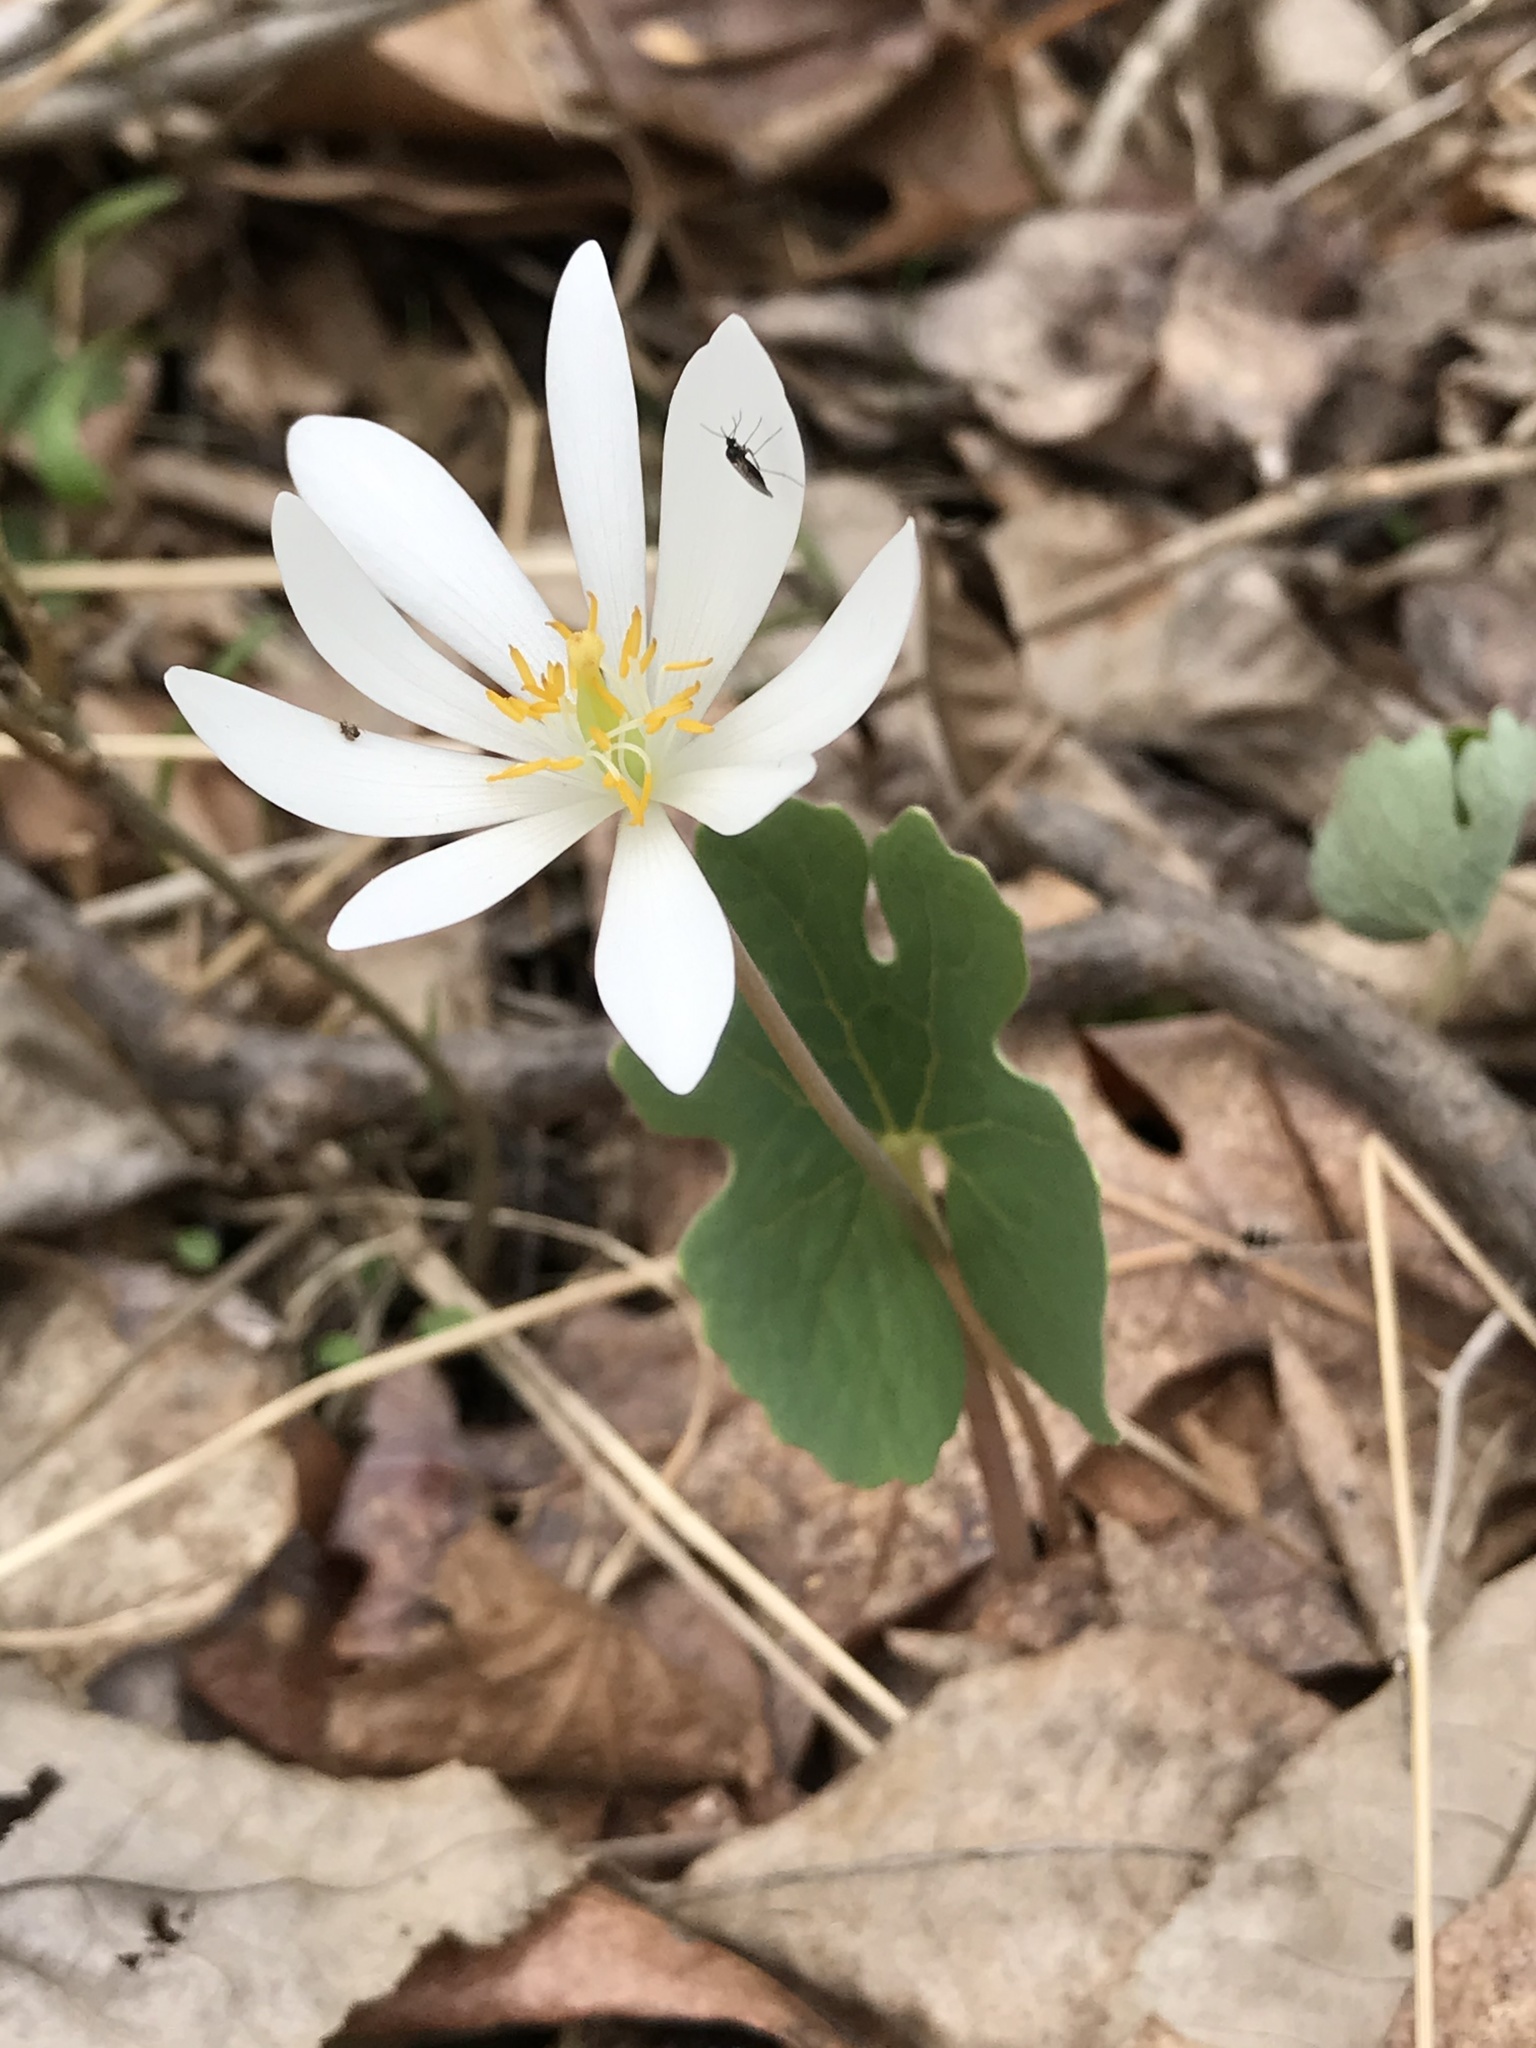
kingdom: Plantae
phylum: Tracheophyta
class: Magnoliopsida
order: Ranunculales
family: Papaveraceae
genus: Sanguinaria
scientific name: Sanguinaria canadensis
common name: Bloodroot
